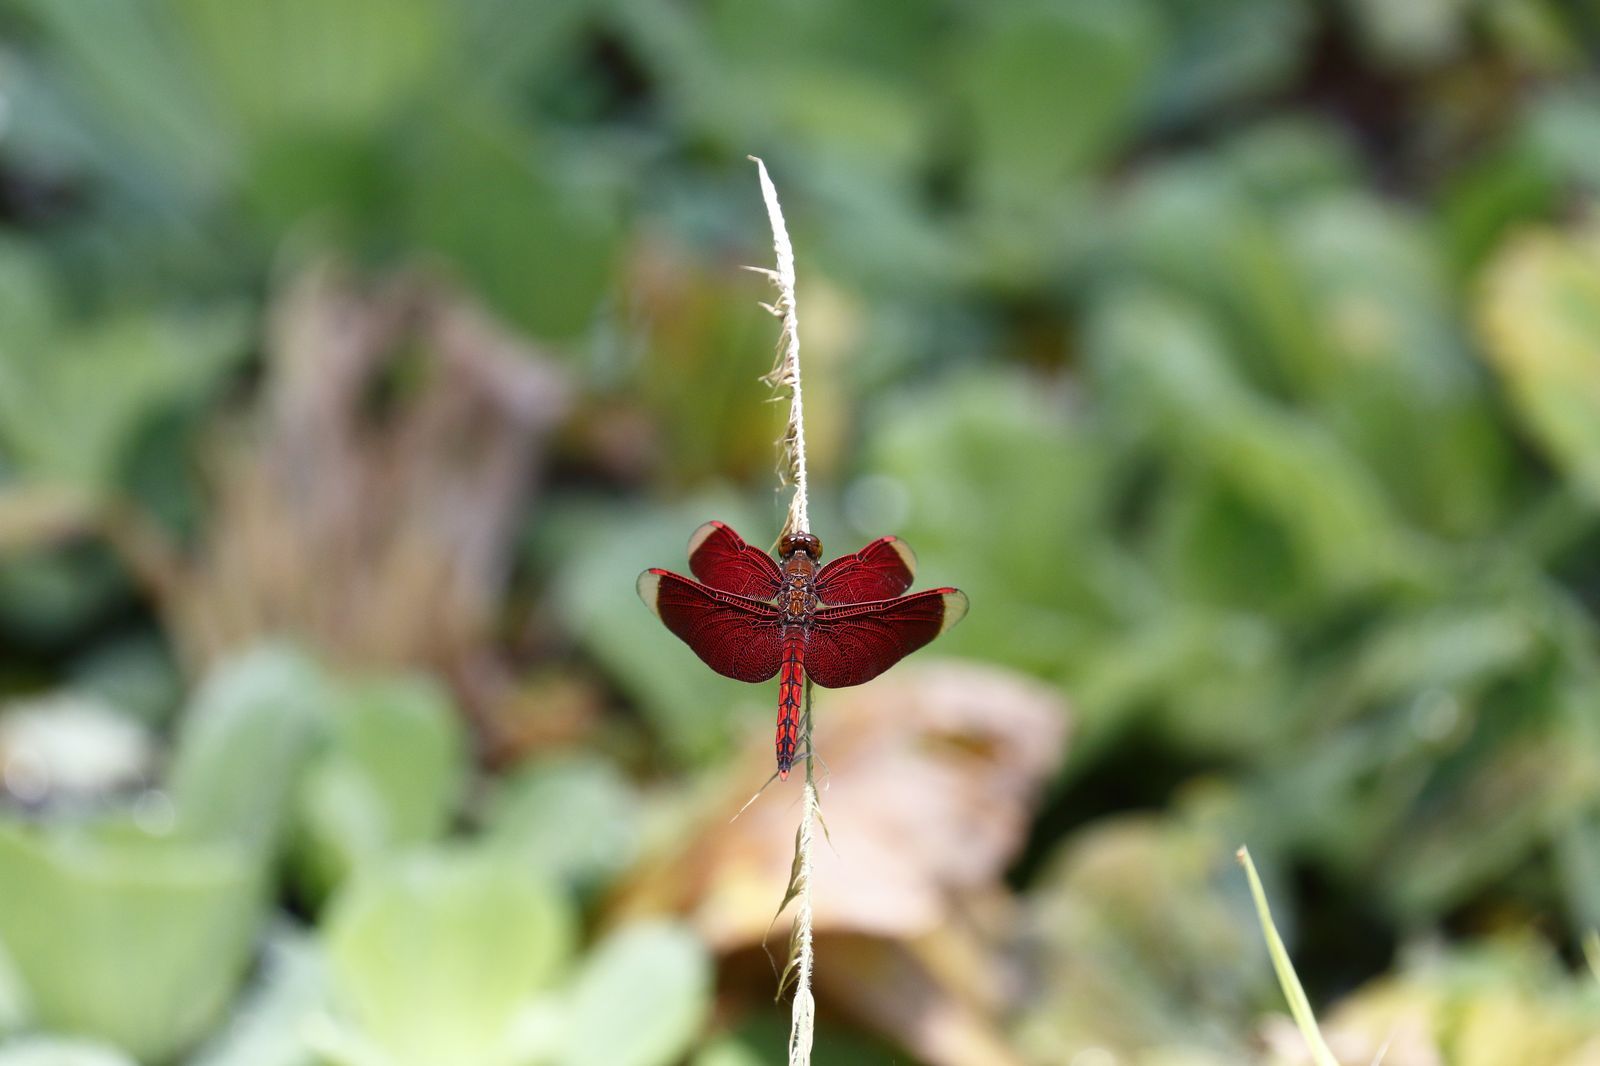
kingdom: Animalia
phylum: Arthropoda
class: Insecta
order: Odonata
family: Libellulidae
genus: Neurothemis
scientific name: Neurothemis taiwanensis
